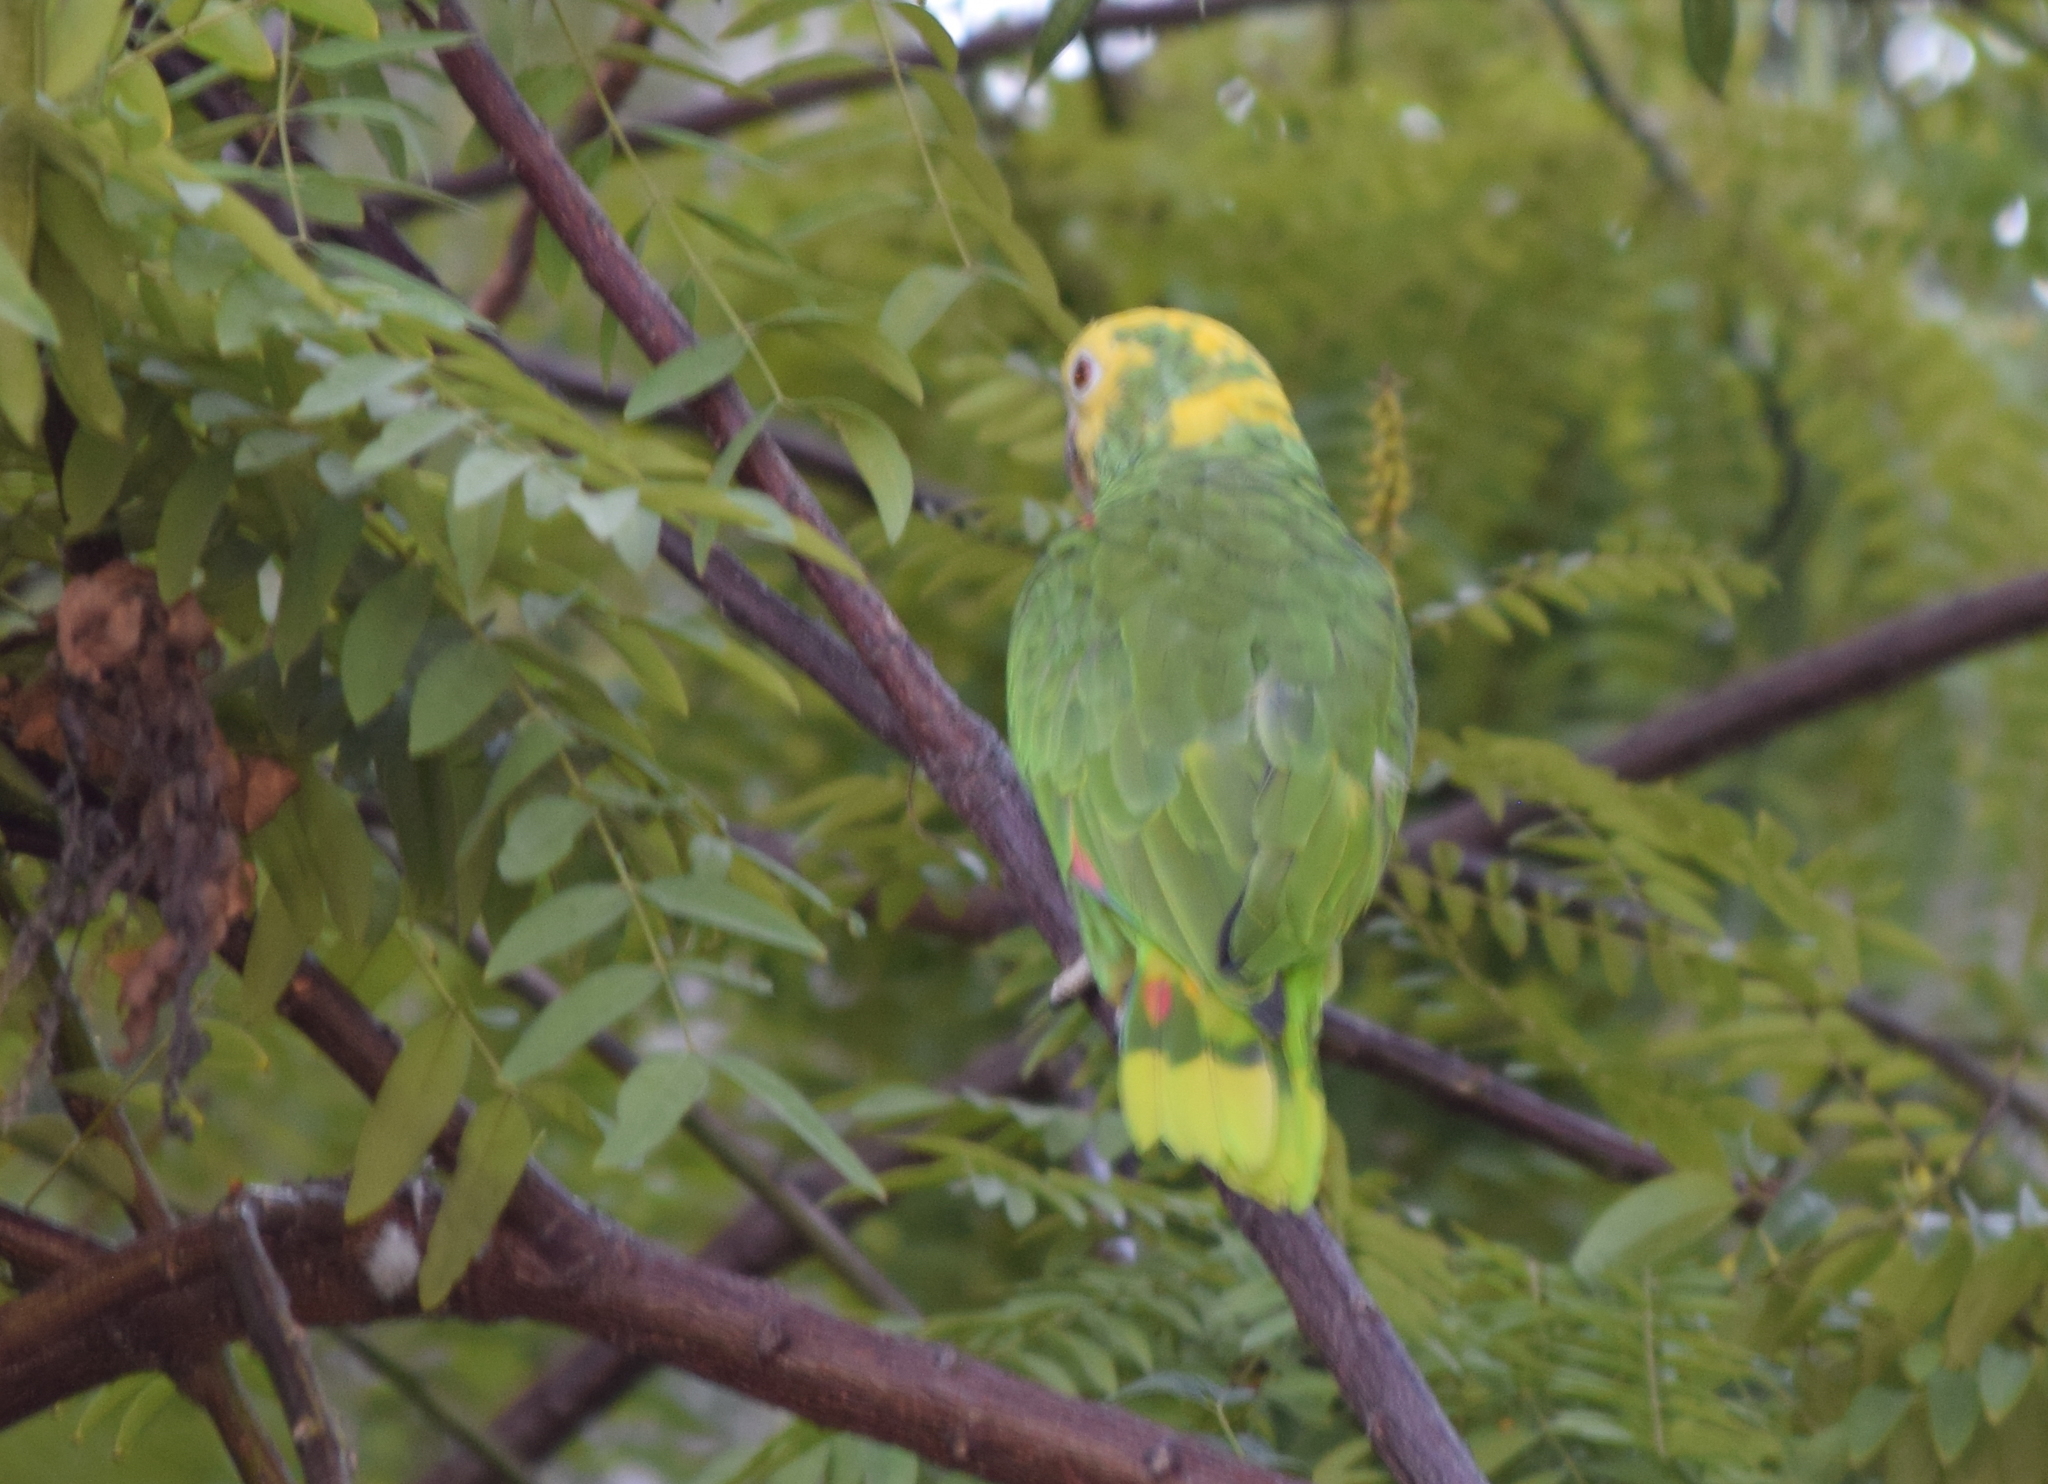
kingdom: Animalia
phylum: Chordata
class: Aves
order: Psittaciformes
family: Psittacidae
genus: Amazona
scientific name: Amazona oratrix
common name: Yellow-headed amazon
